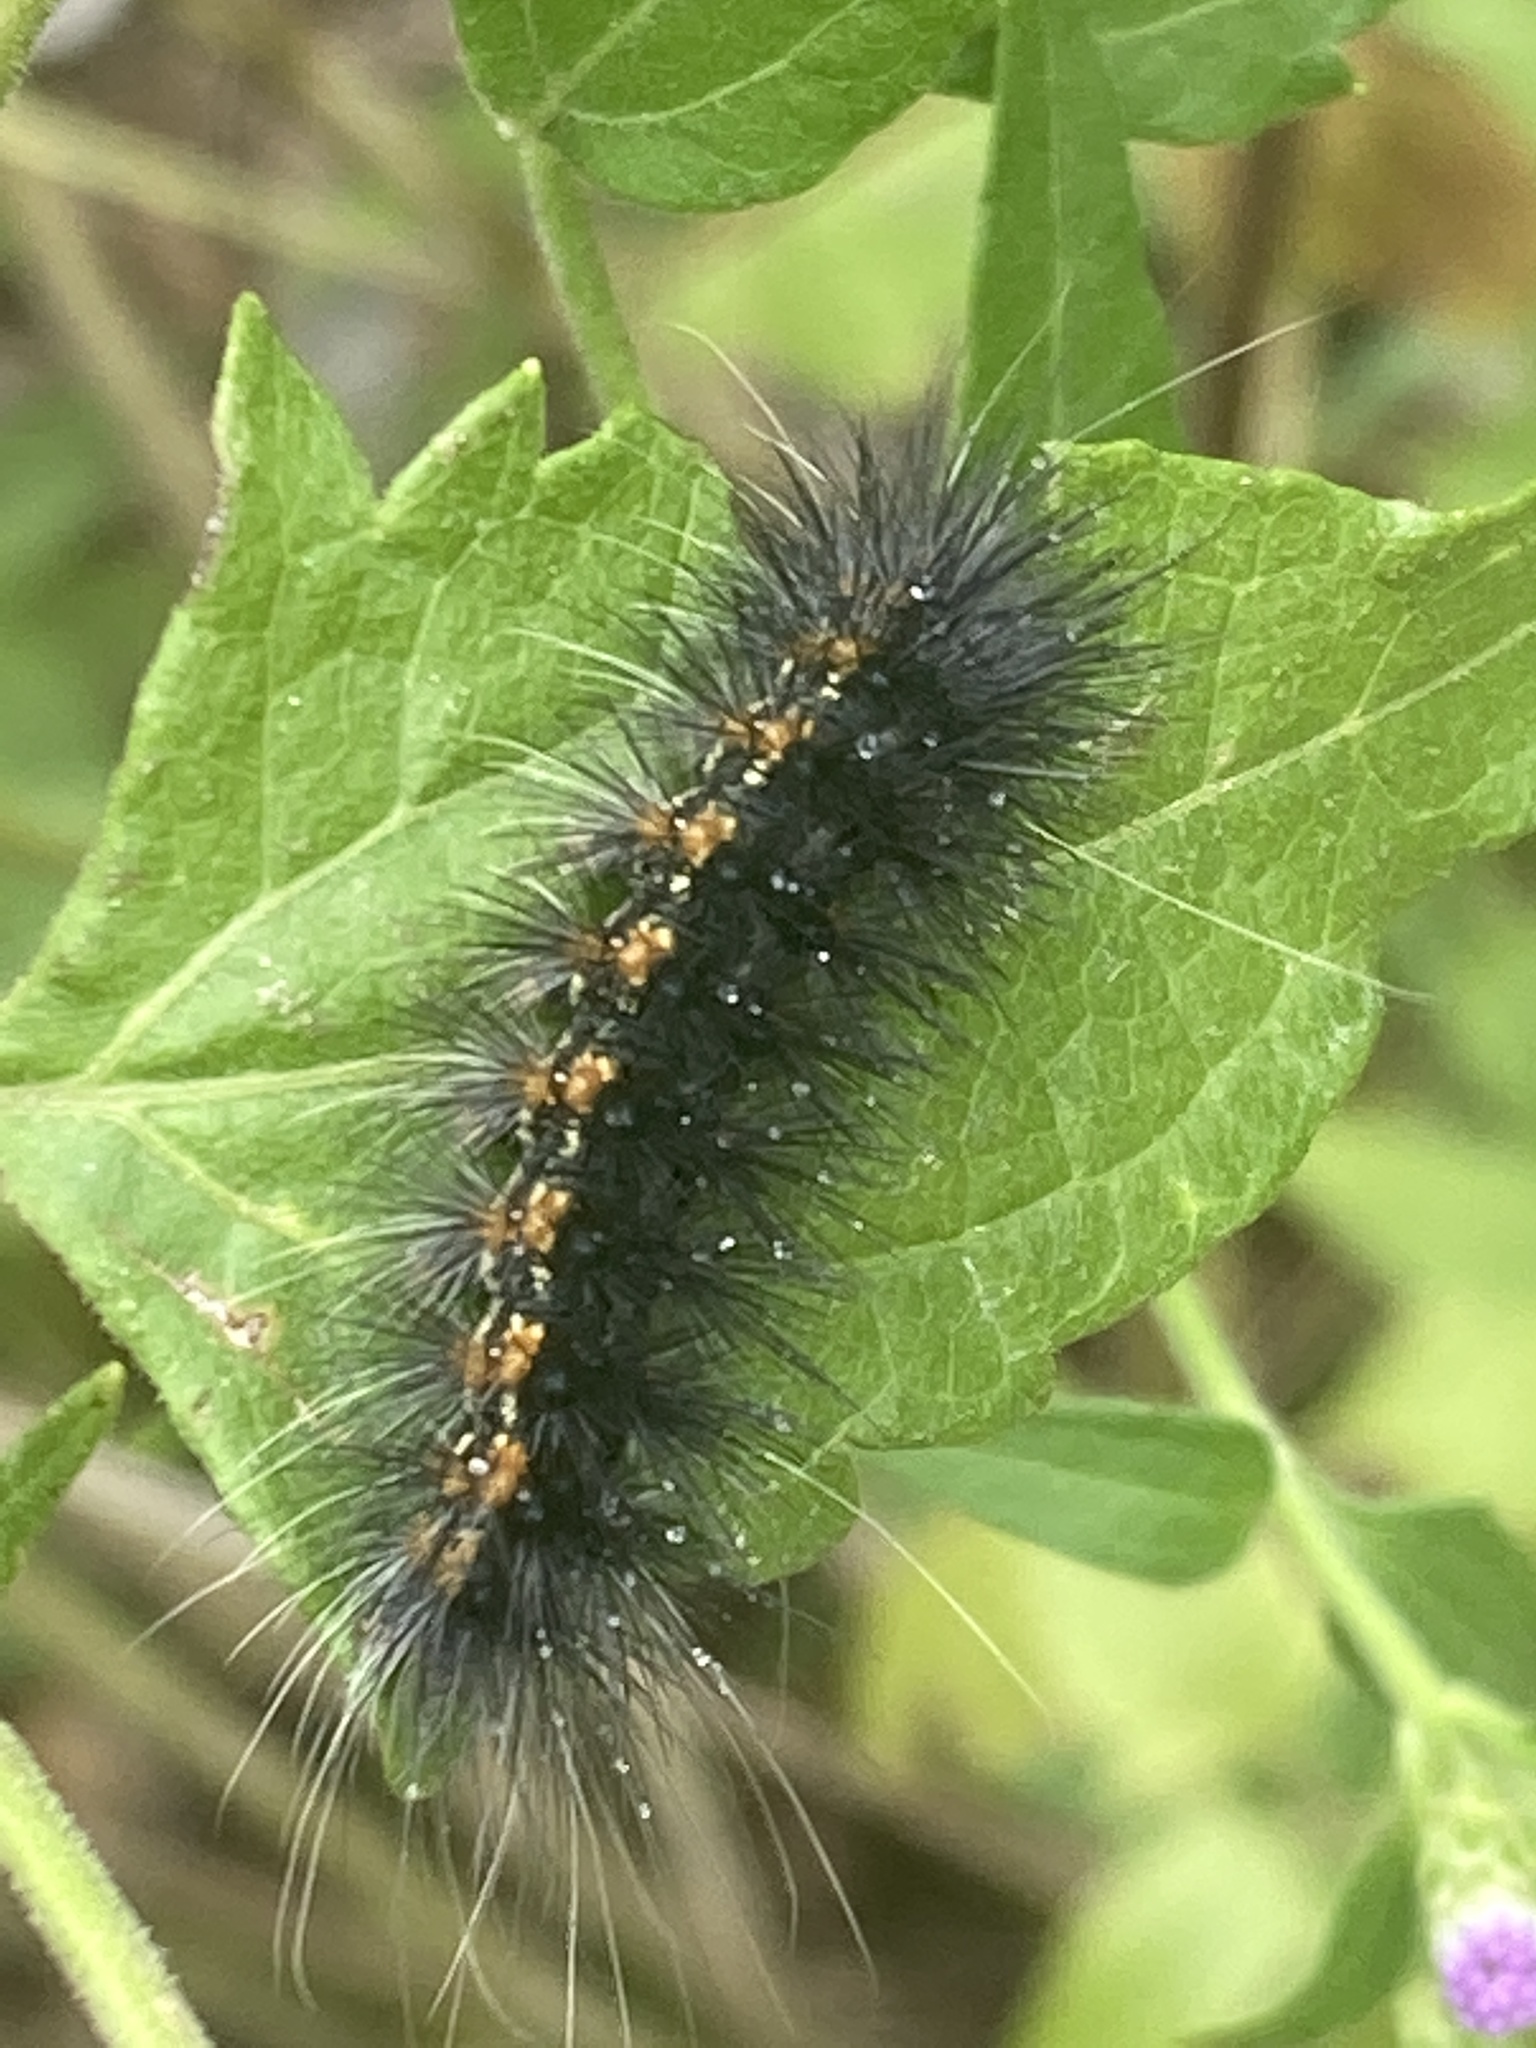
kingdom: Animalia
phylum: Arthropoda
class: Insecta
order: Lepidoptera
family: Erebidae
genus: Estigmene
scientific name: Estigmene acrea
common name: Salt marsh moth
